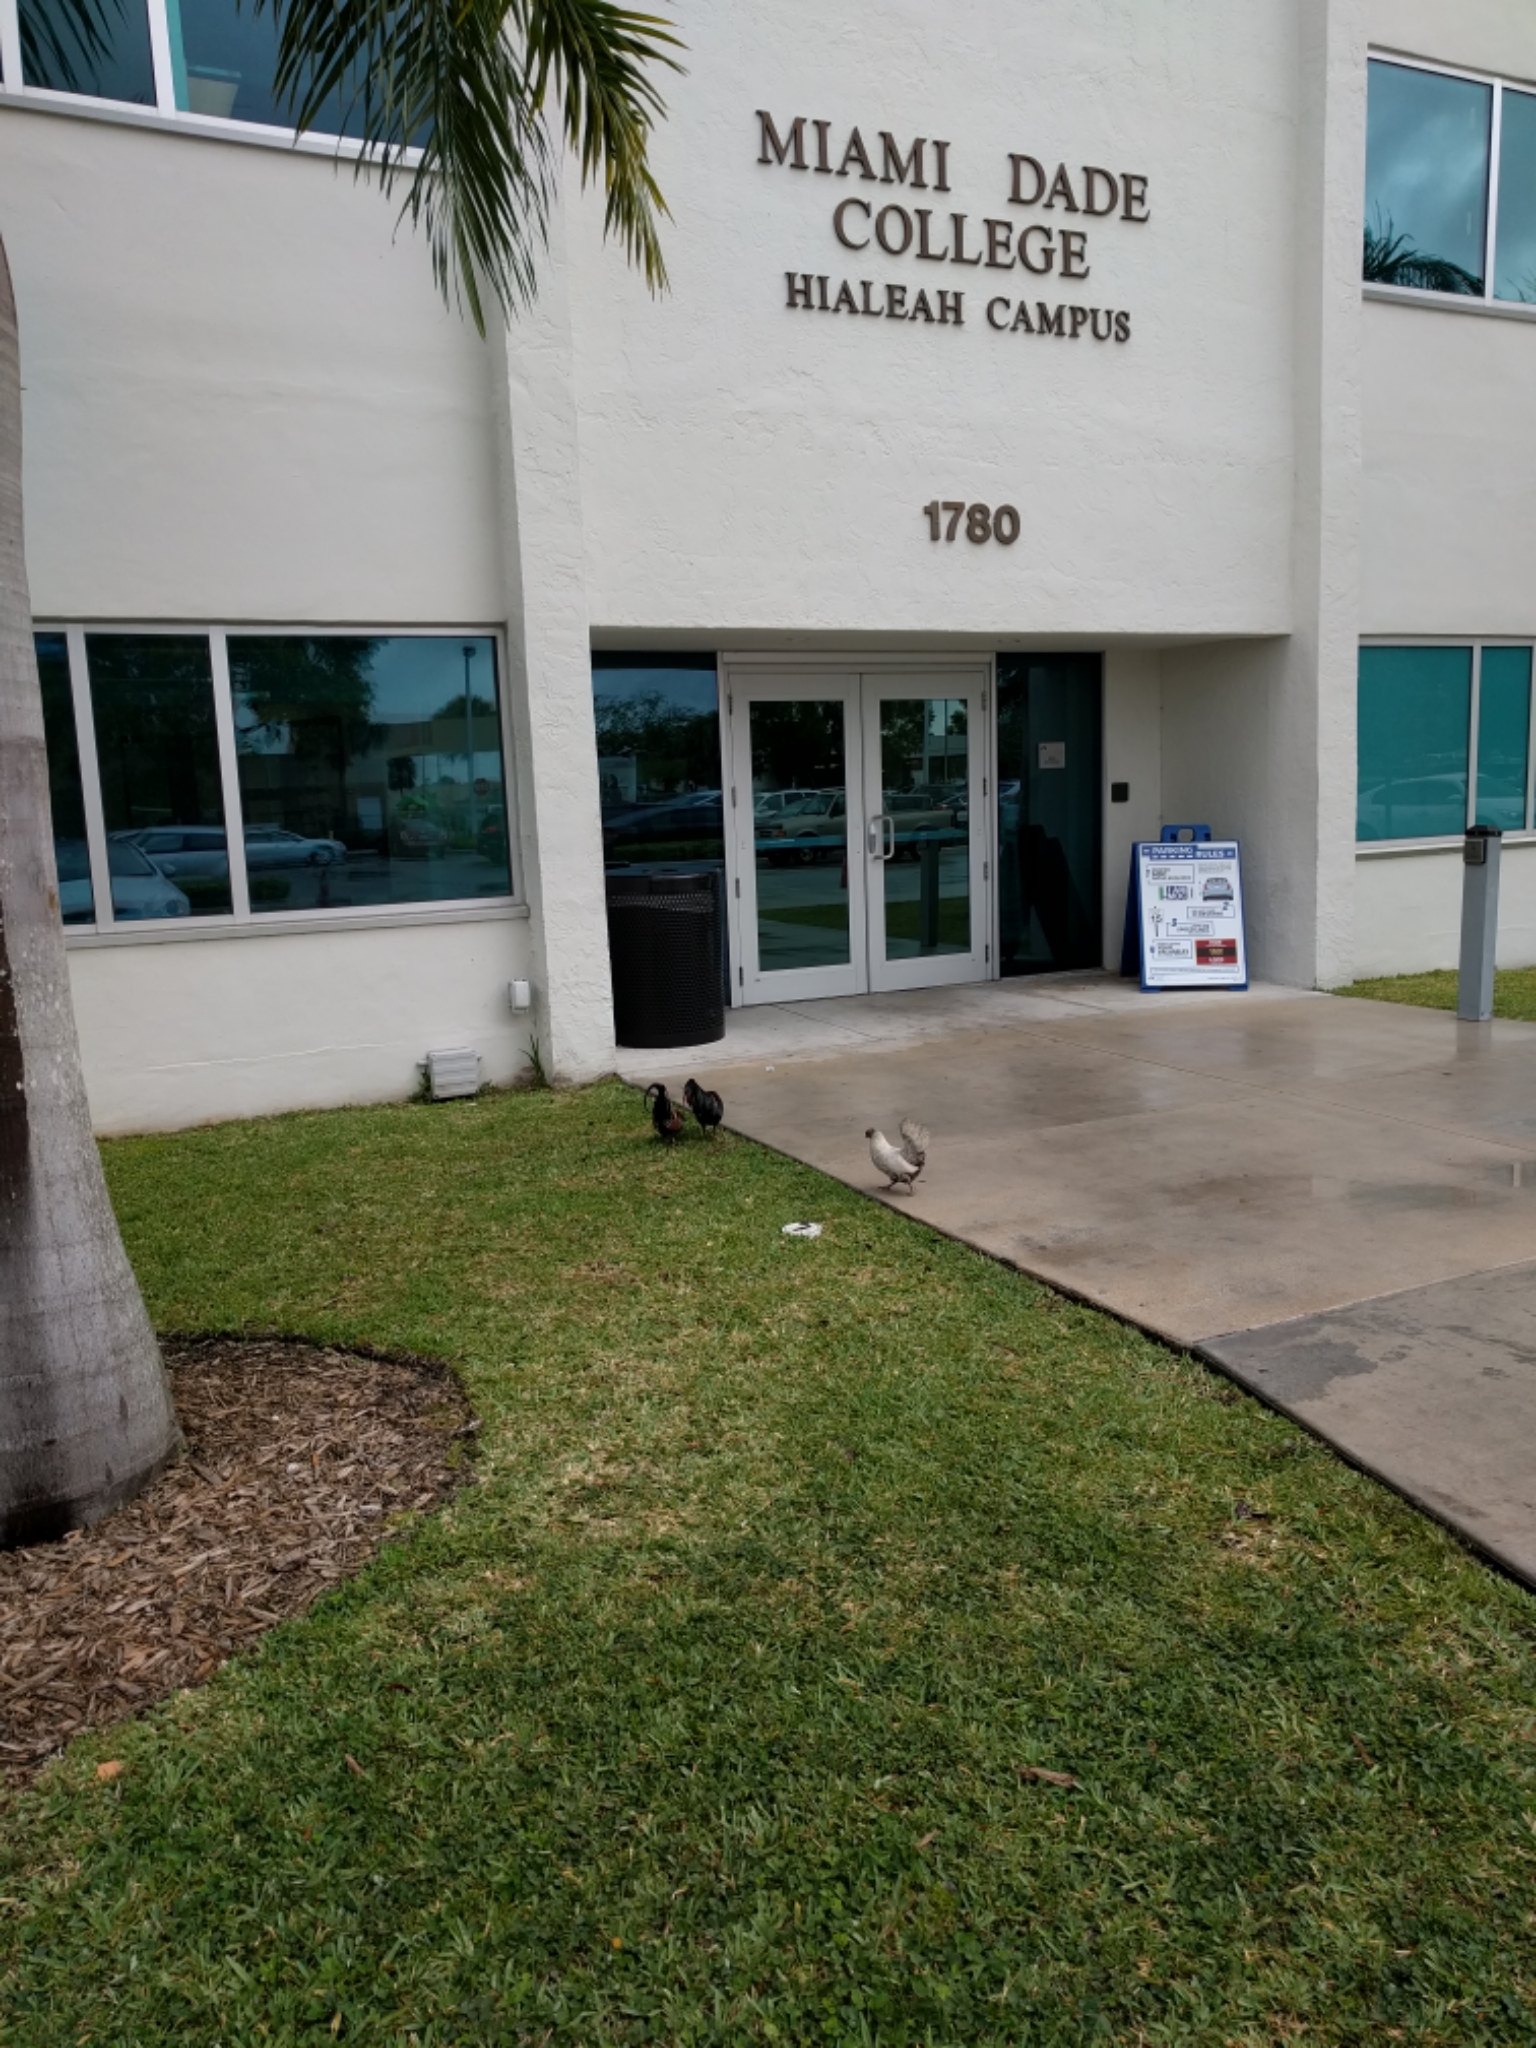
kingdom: Animalia
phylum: Chordata
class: Aves
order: Galliformes
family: Phasianidae
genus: Gallus
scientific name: Gallus gallus
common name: Red junglefowl
